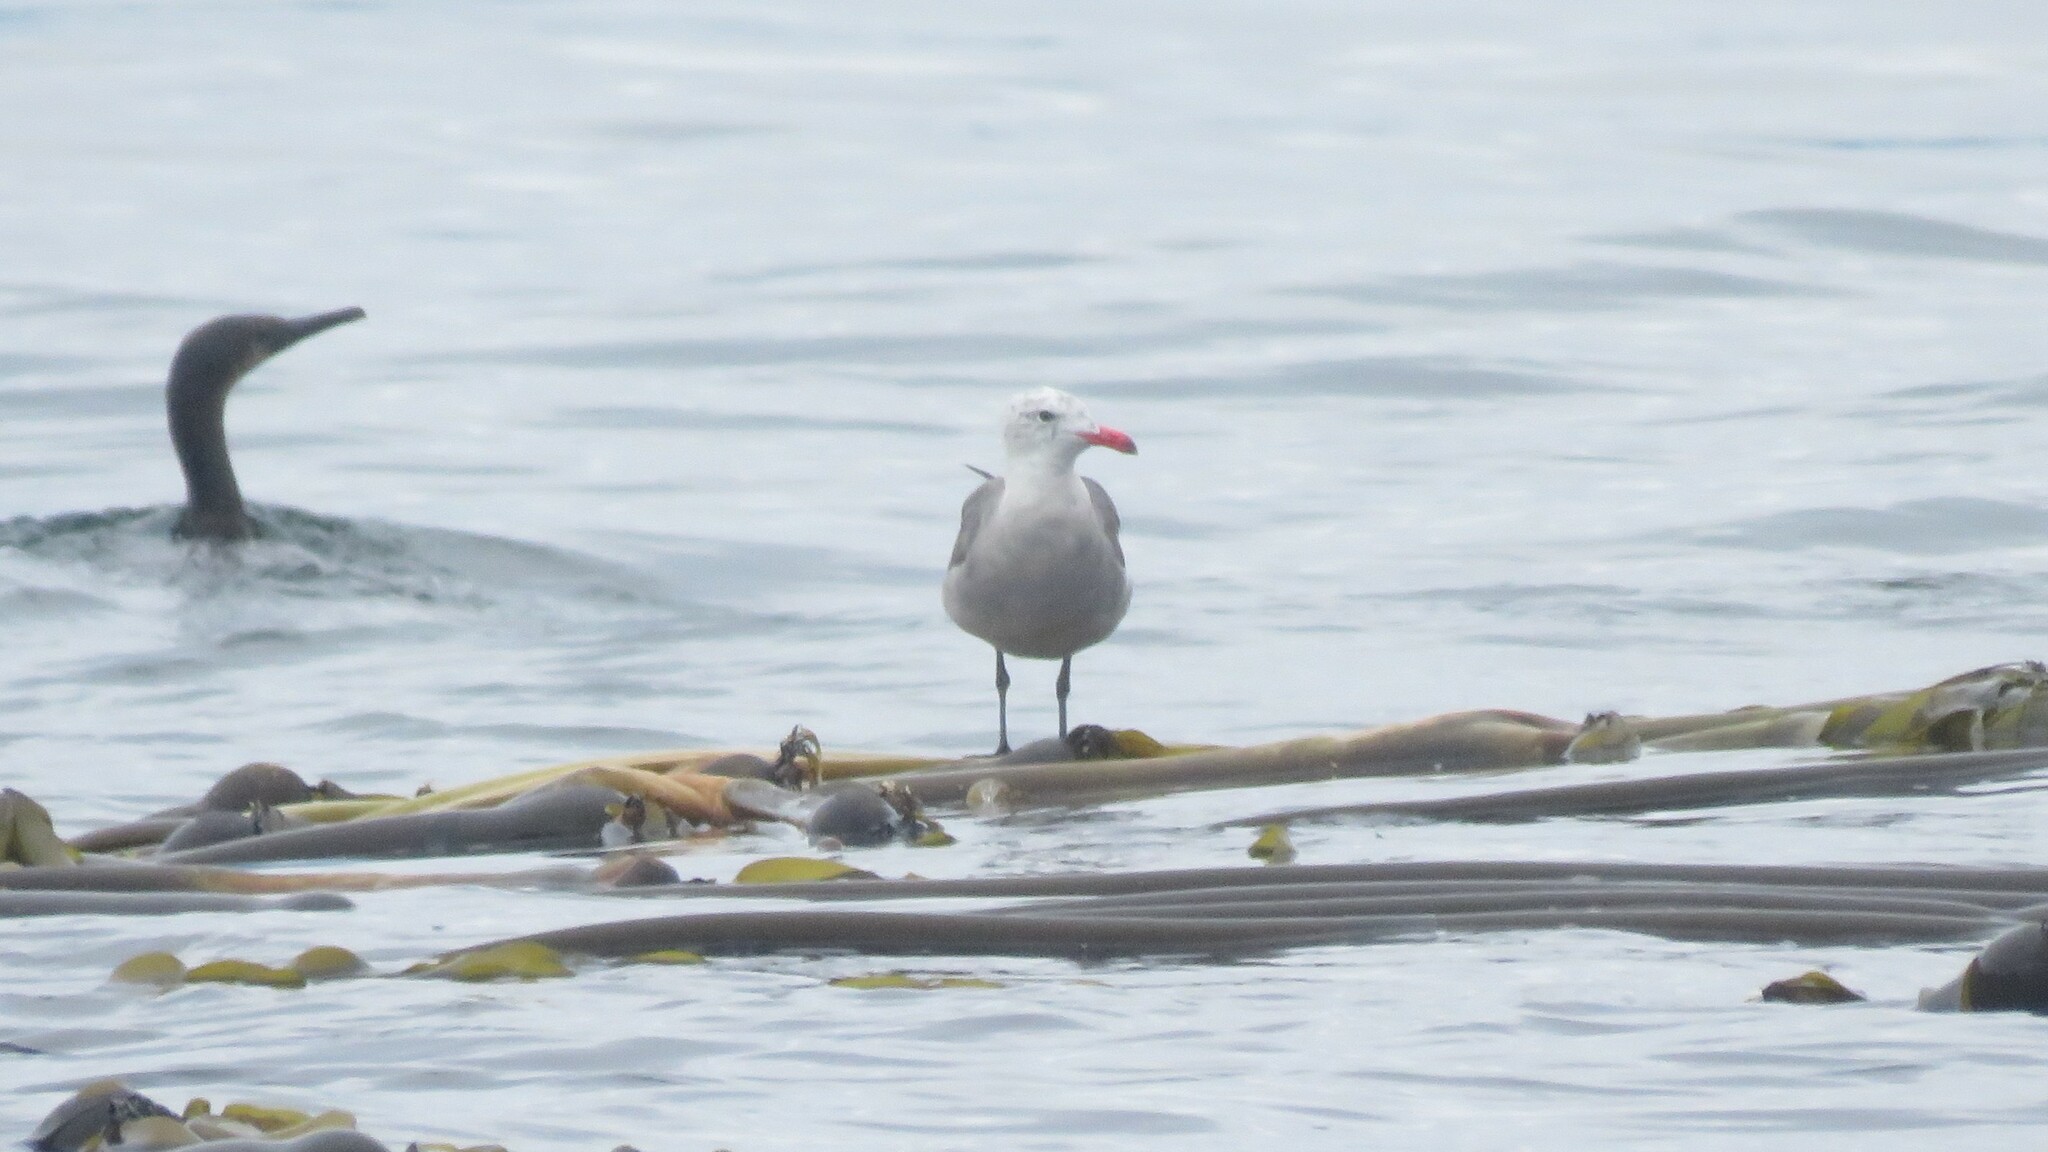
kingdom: Animalia
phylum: Chordata
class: Aves
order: Charadriiformes
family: Laridae
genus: Larus
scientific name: Larus heermanni
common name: Heermann's gull
